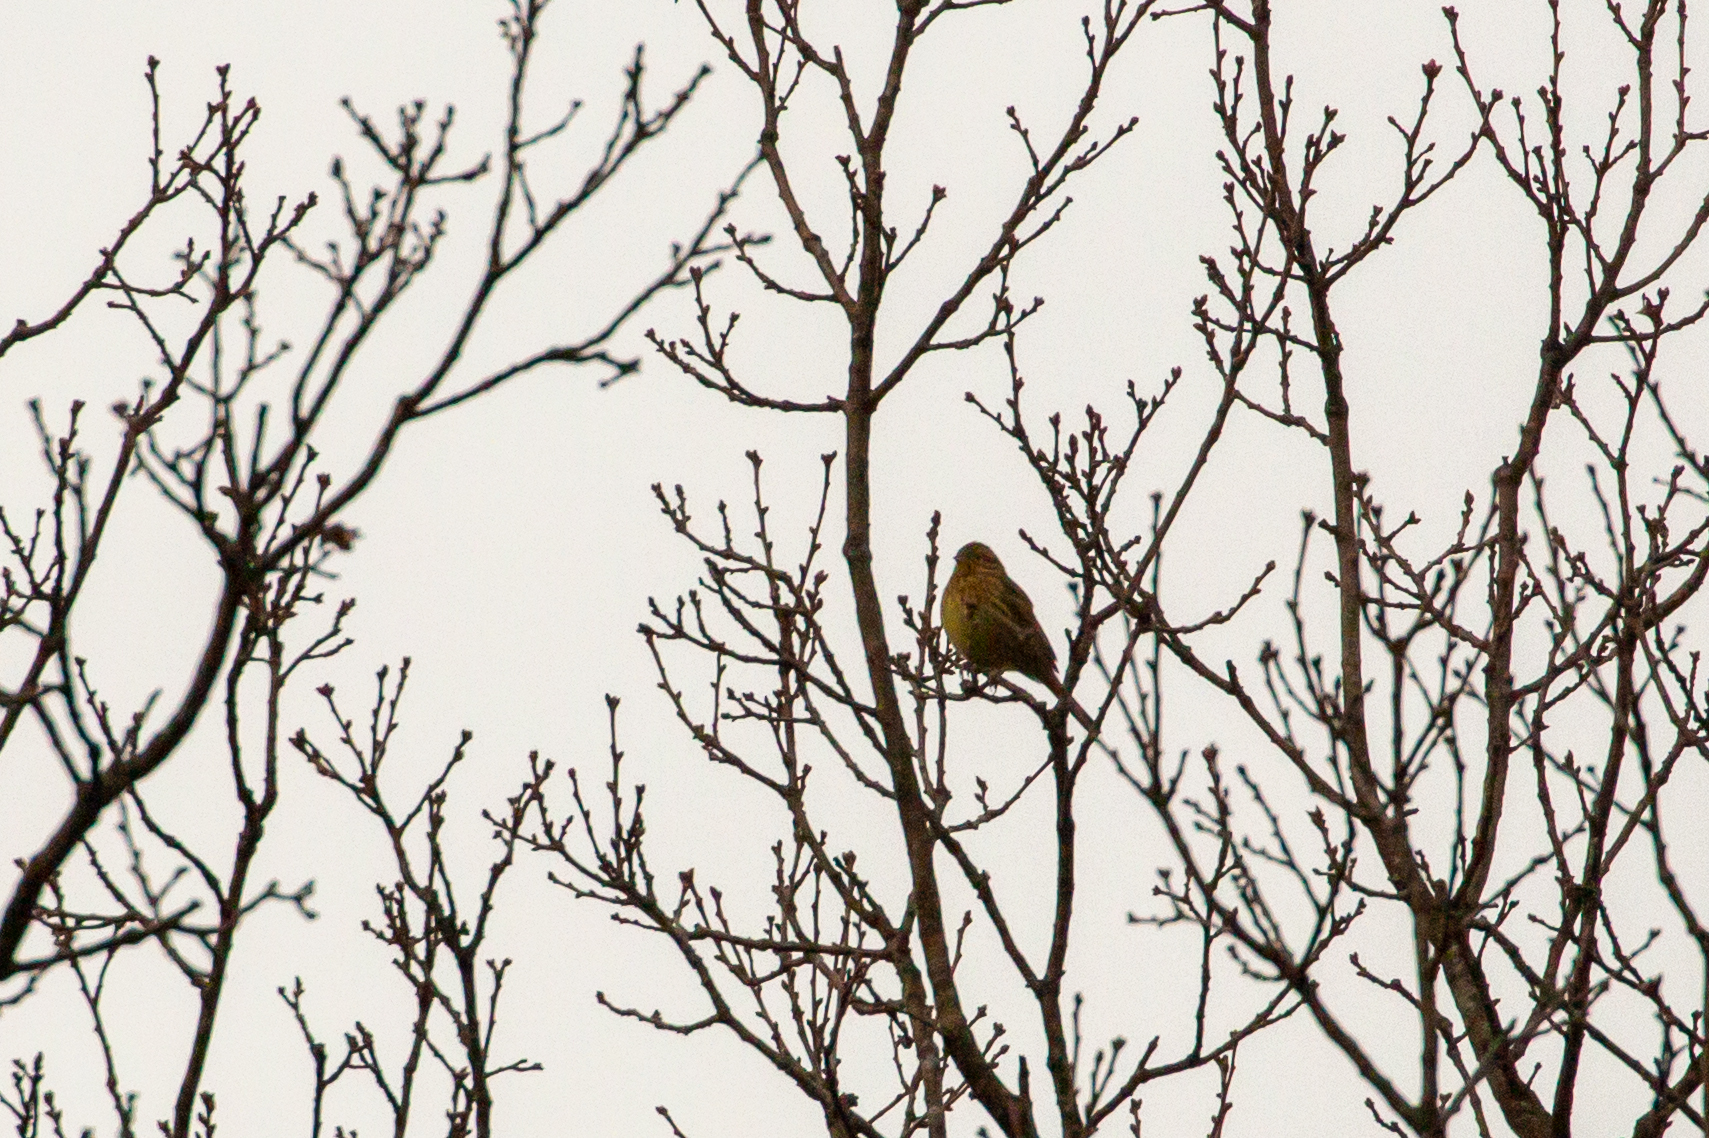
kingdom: Animalia
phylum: Chordata
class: Aves
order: Passeriformes
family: Emberizidae
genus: Emberiza
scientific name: Emberiza citrinella
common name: Yellowhammer
